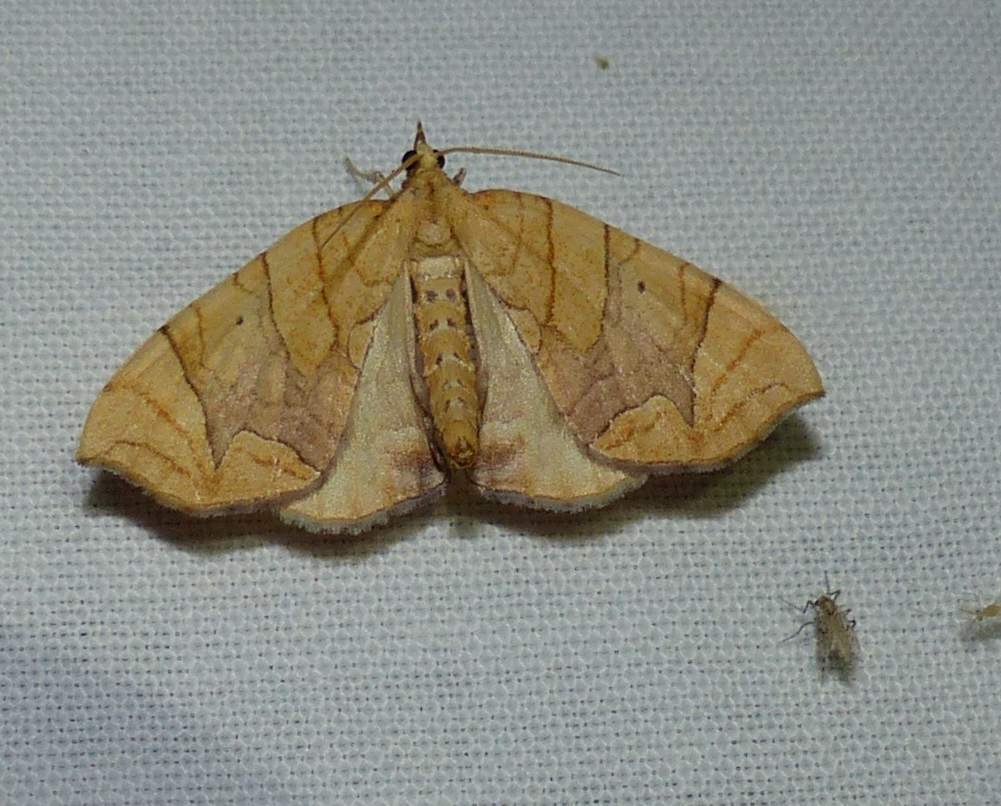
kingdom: Animalia
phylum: Arthropoda
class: Insecta
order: Lepidoptera
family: Geometridae
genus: Eulithis
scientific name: Eulithis
